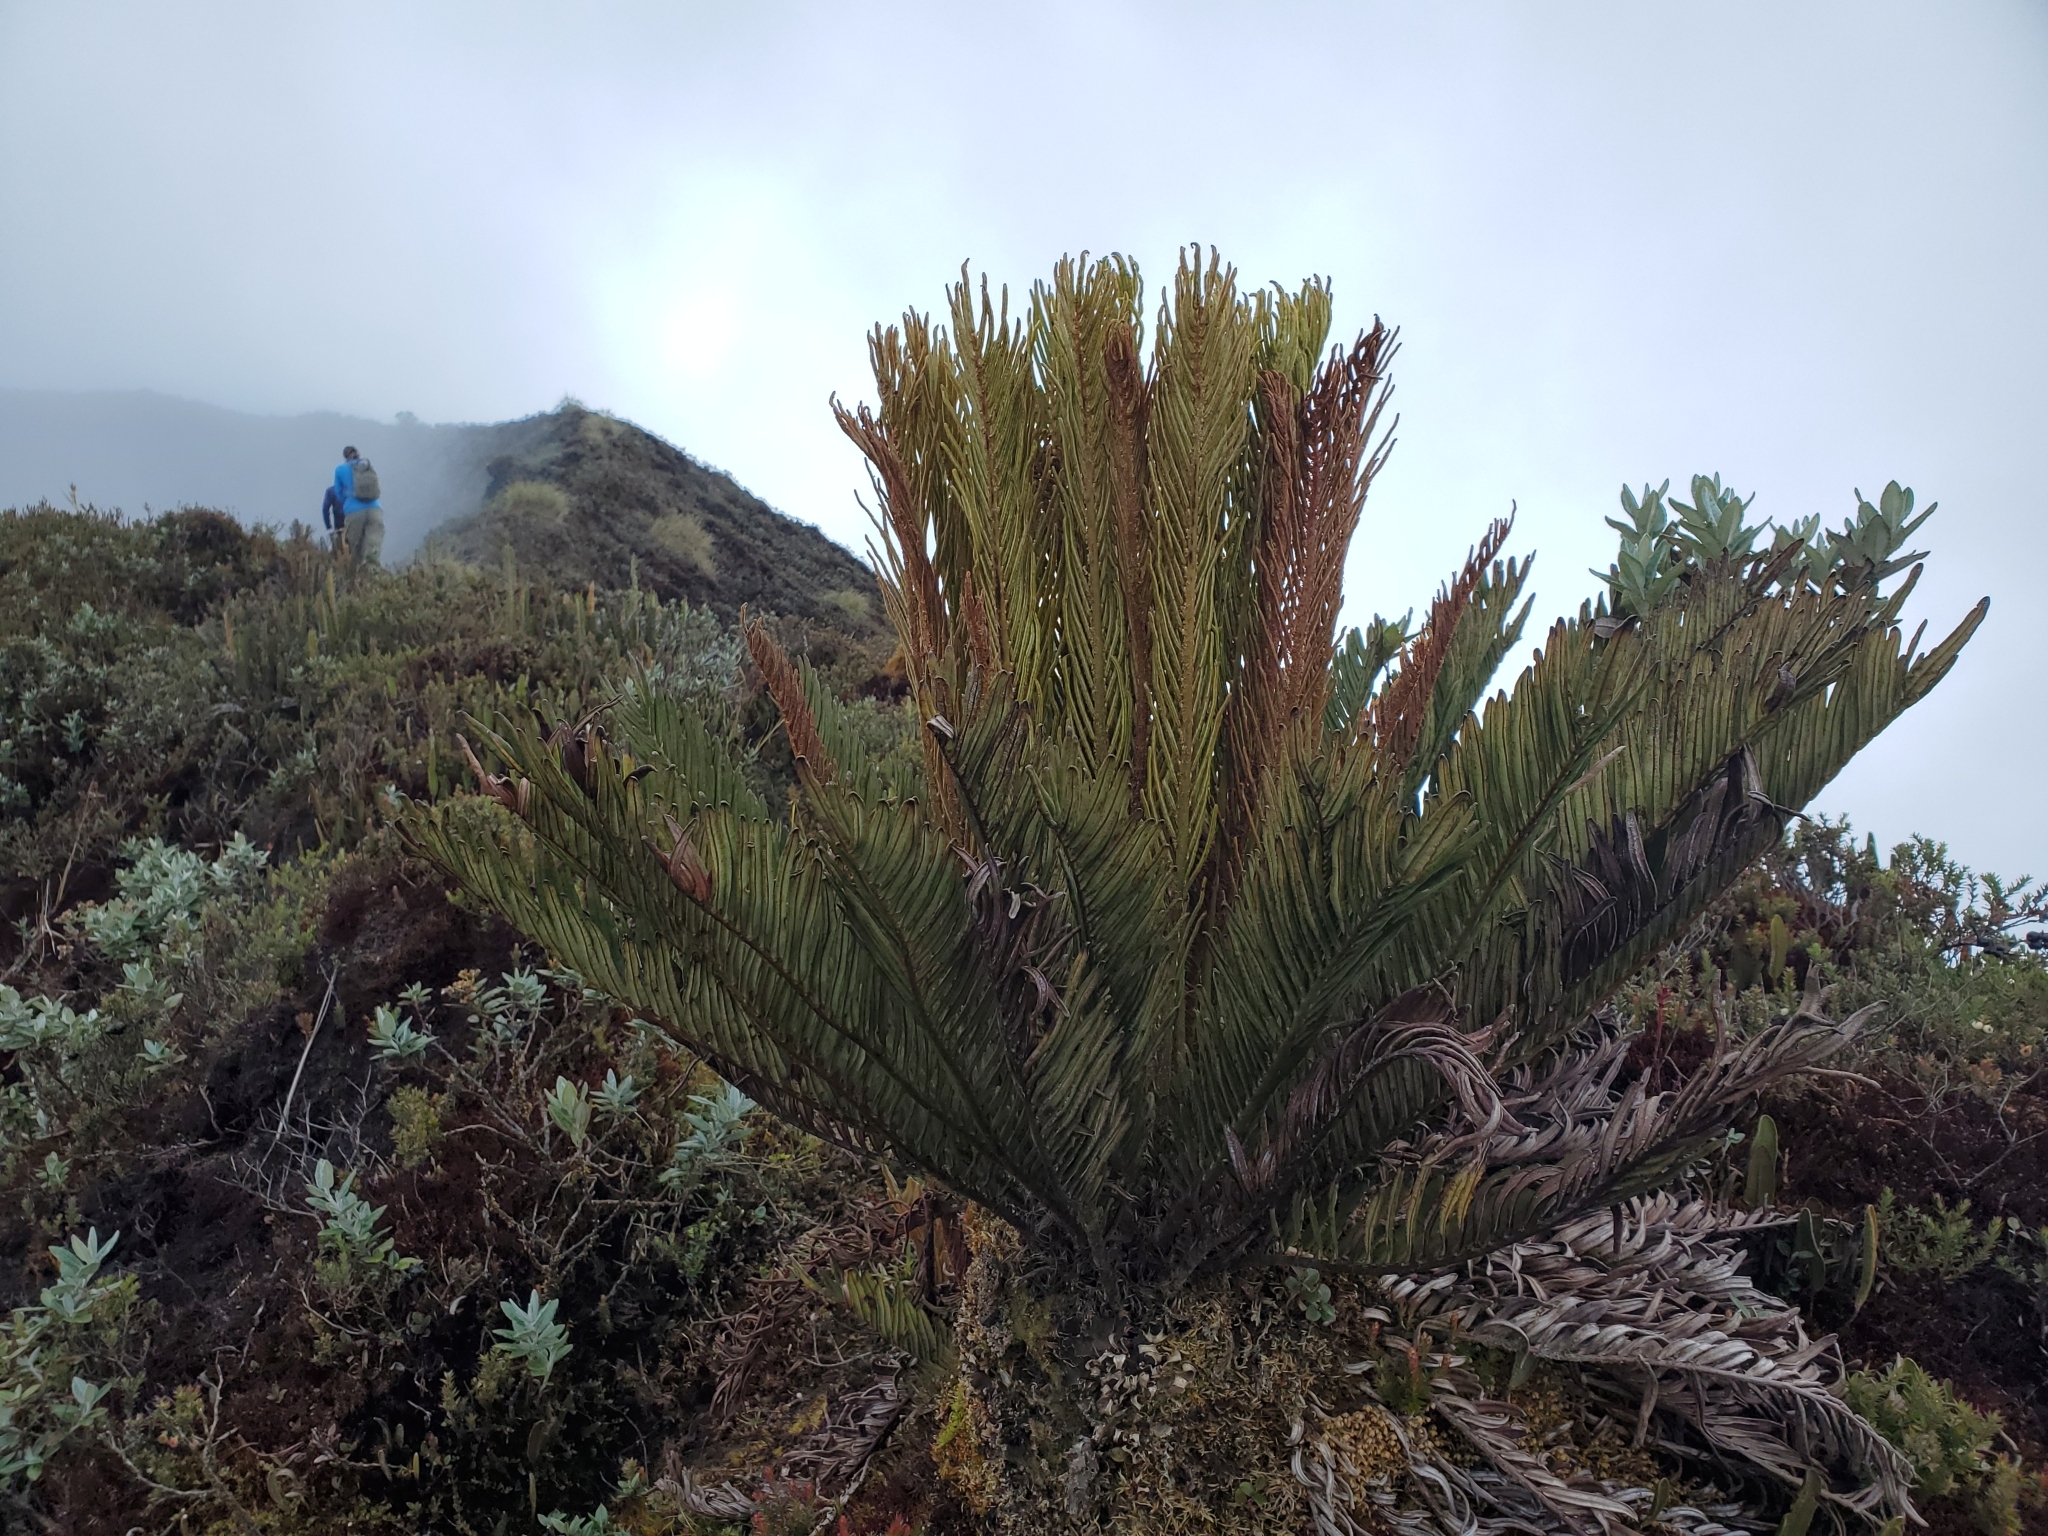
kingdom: Plantae
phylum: Tracheophyta
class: Polypodiopsida
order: Polypodiales
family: Blechnaceae
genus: Lomariocycas
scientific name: Lomariocycas aurata
